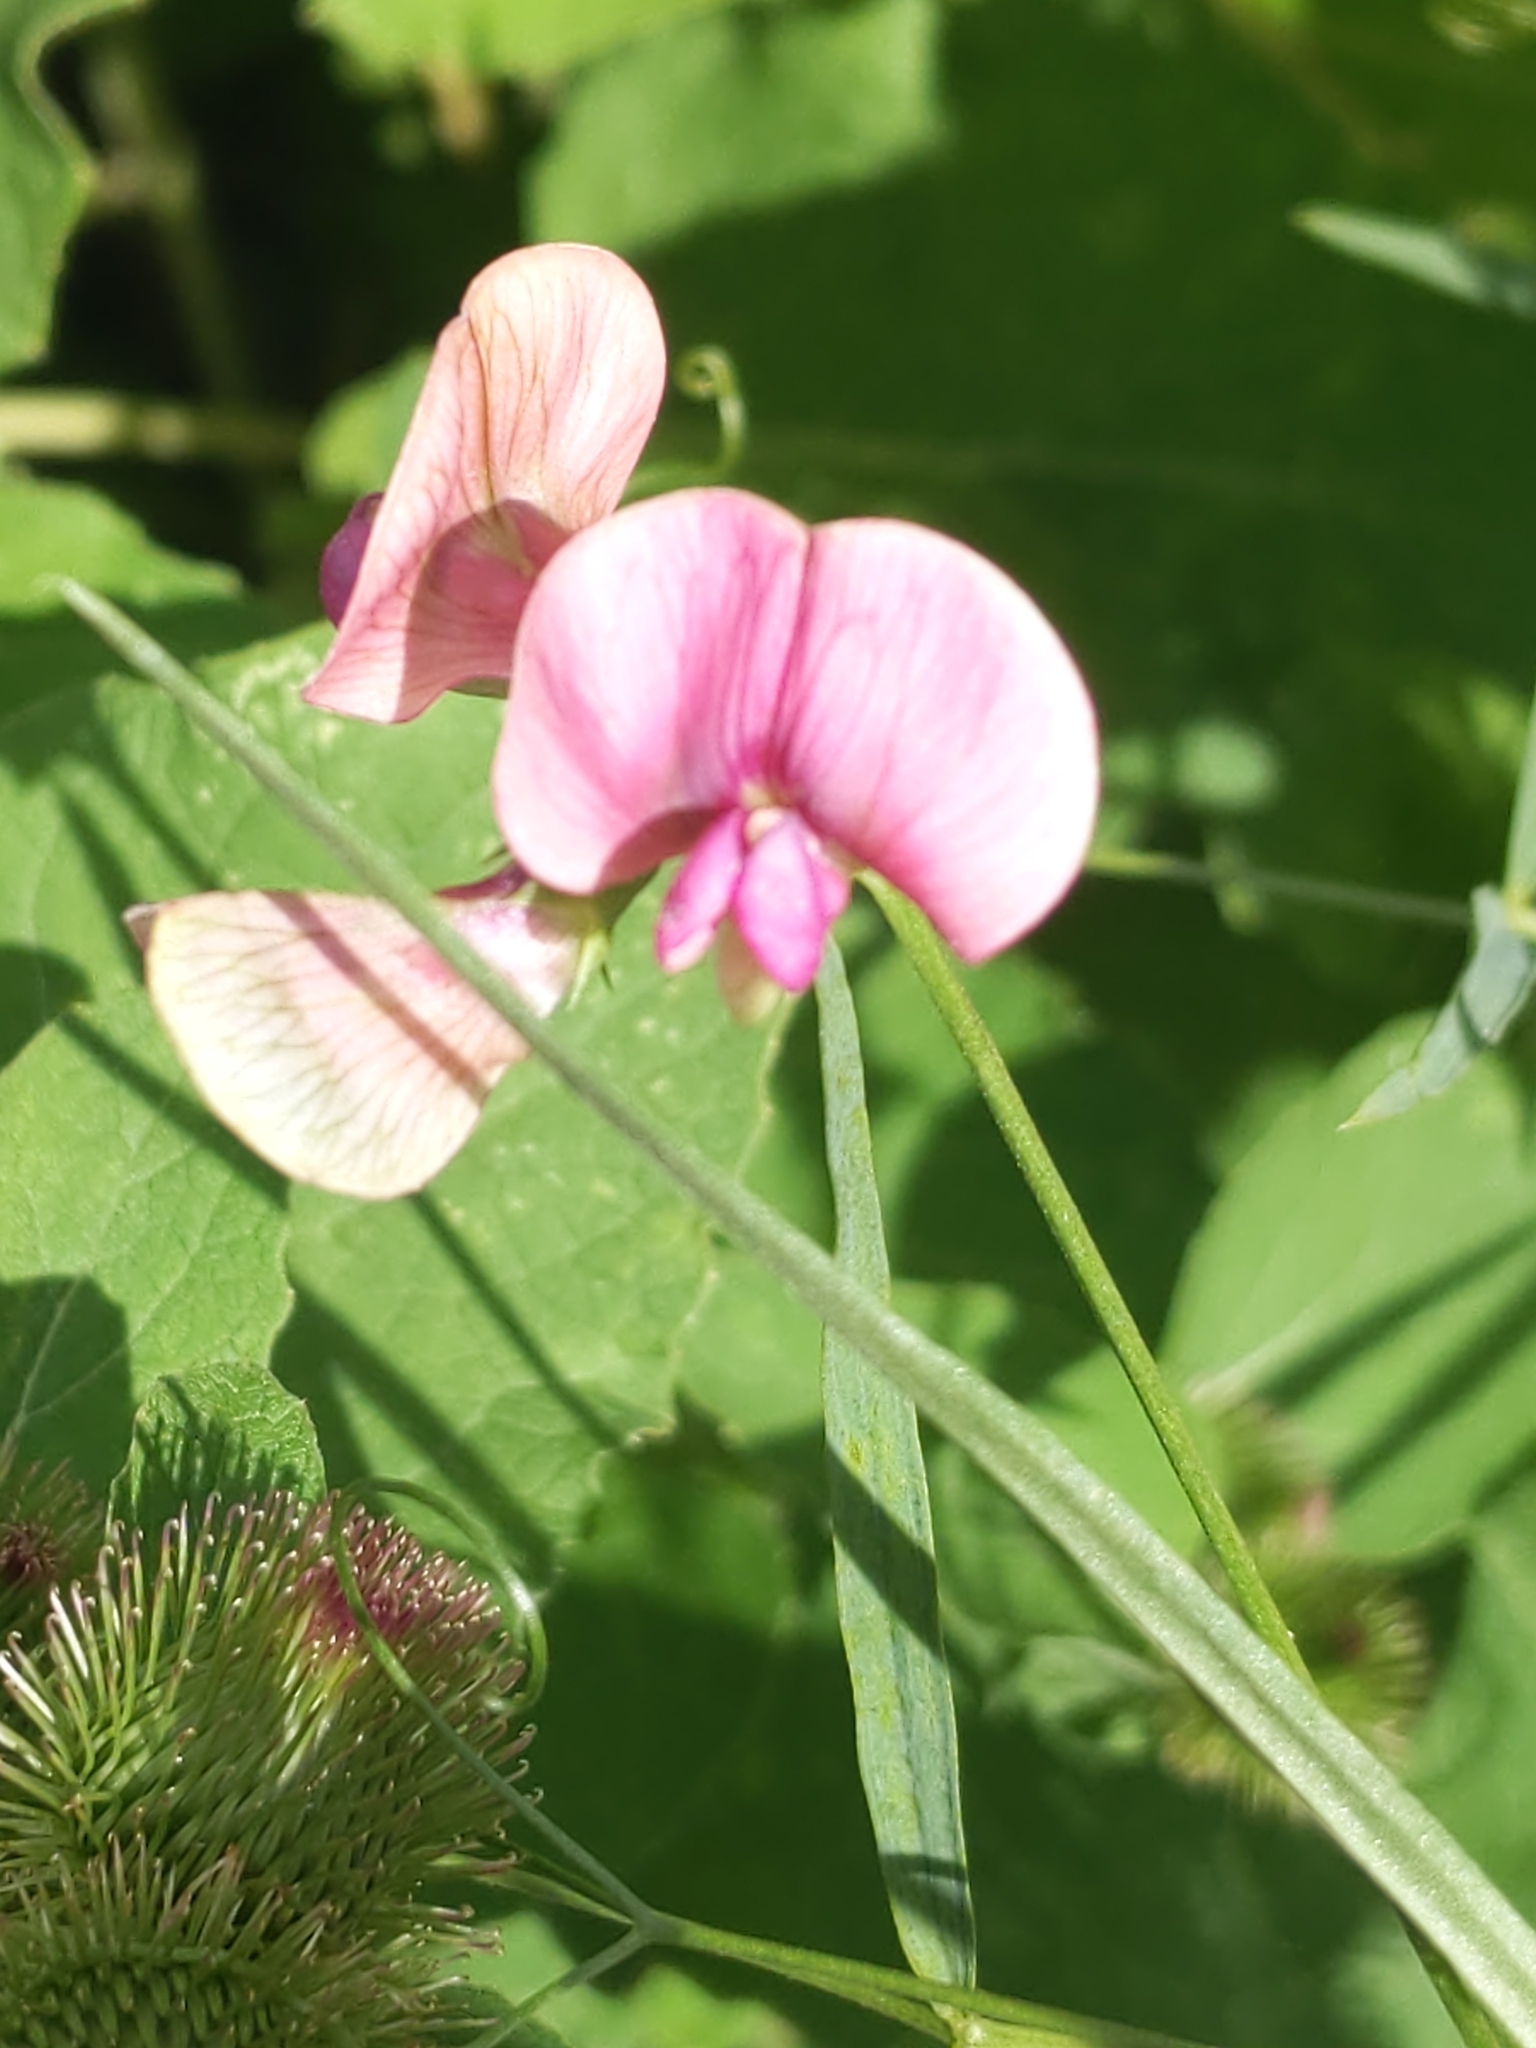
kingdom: Plantae
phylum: Tracheophyta
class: Magnoliopsida
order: Fabales
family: Fabaceae
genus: Lathyrus
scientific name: Lathyrus sylvestris
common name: Flat pea
